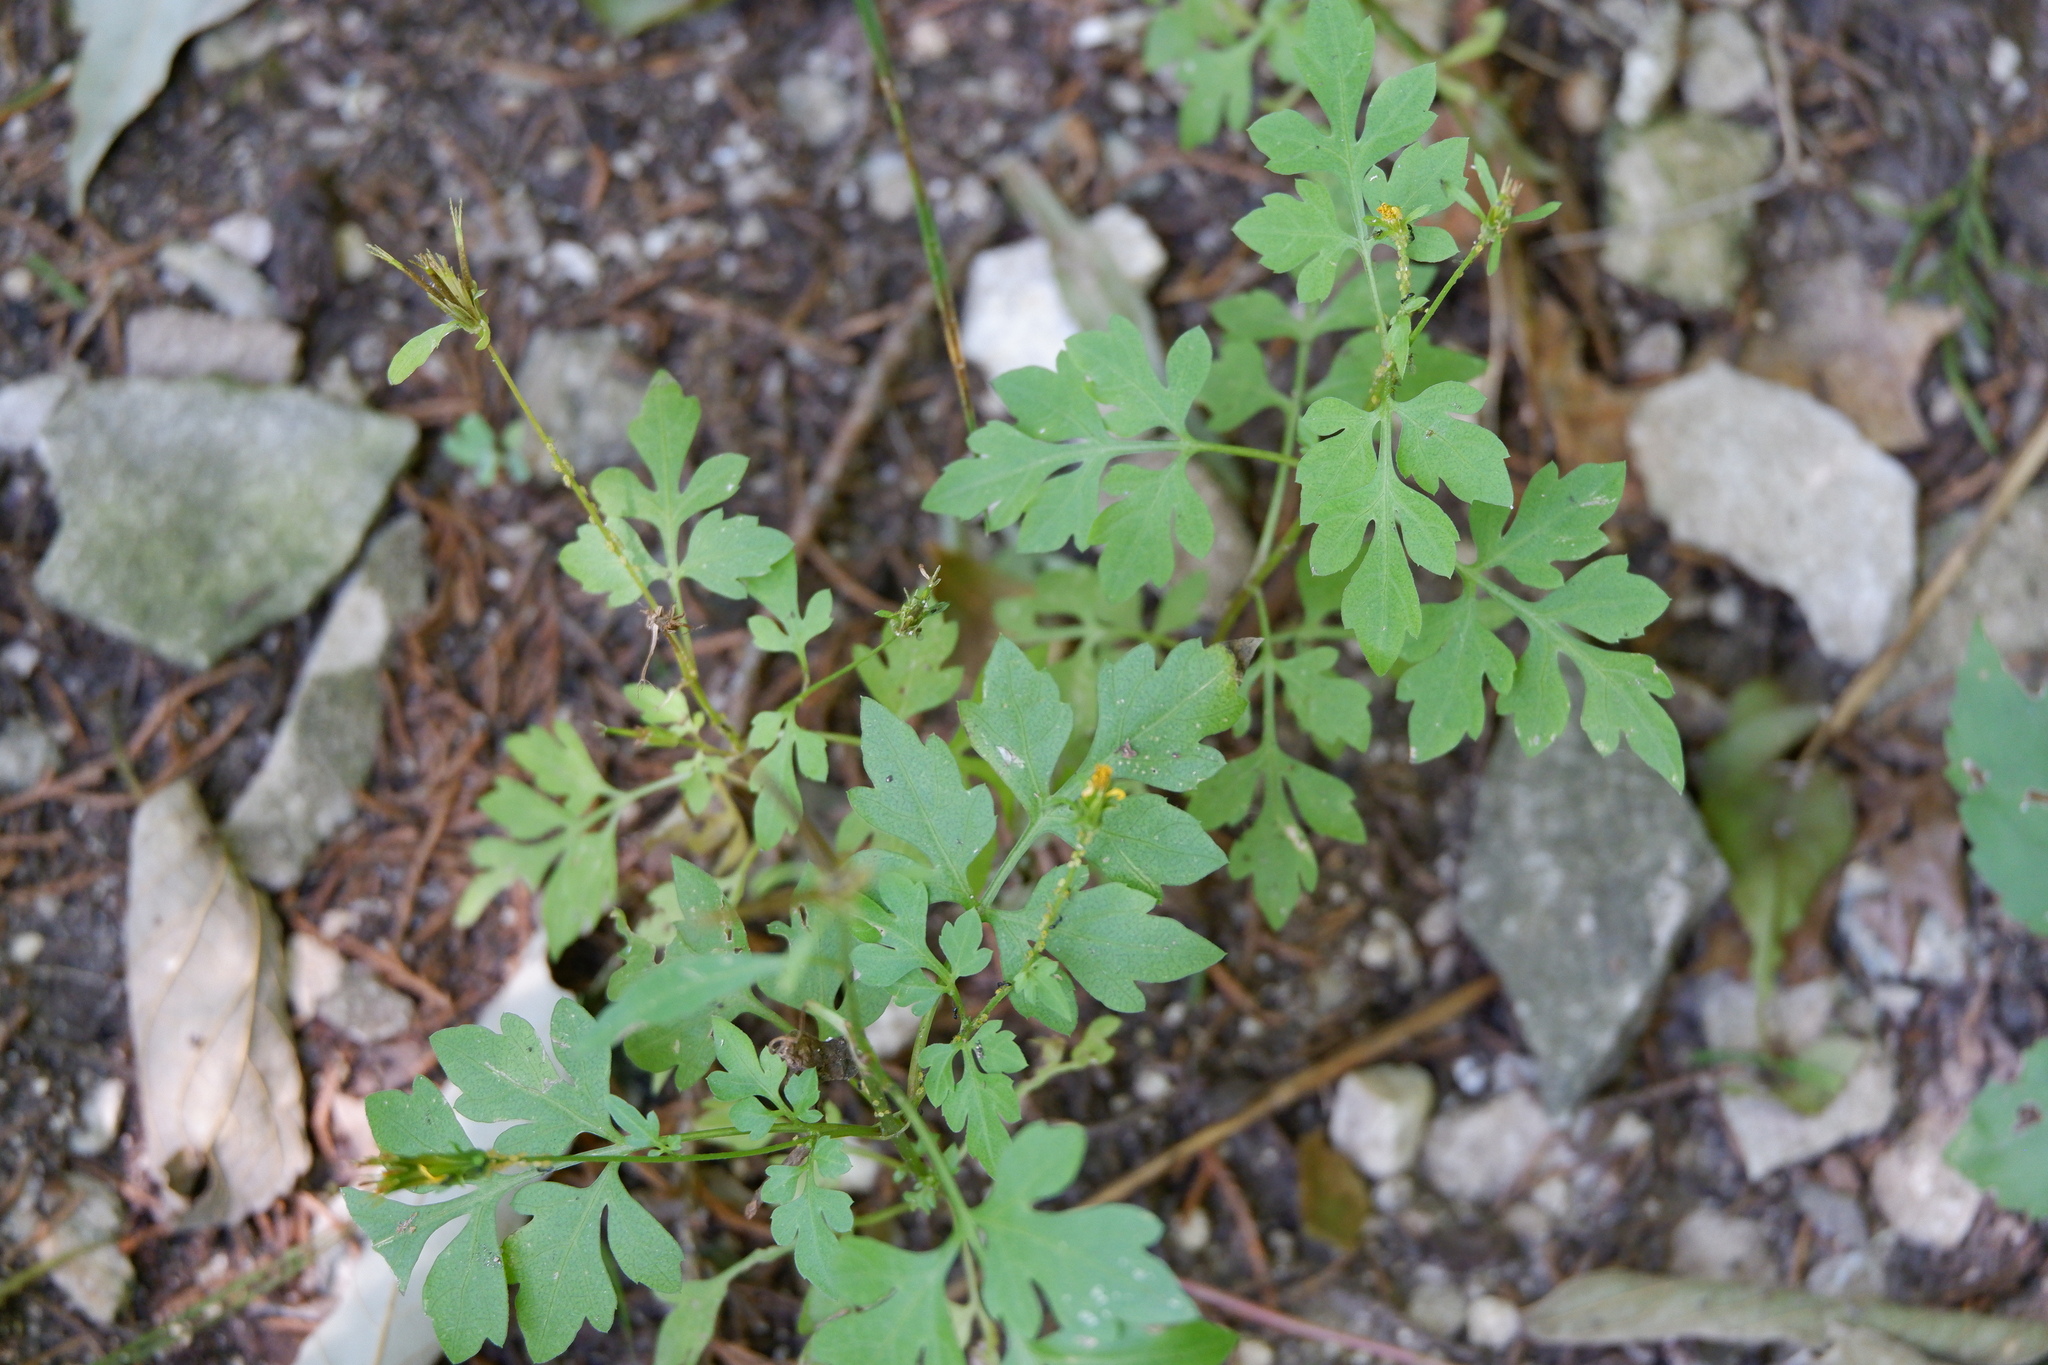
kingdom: Plantae
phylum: Tracheophyta
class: Magnoliopsida
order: Asterales
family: Asteraceae
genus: Bidens
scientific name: Bidens bipinnata
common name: Spanish-needles
